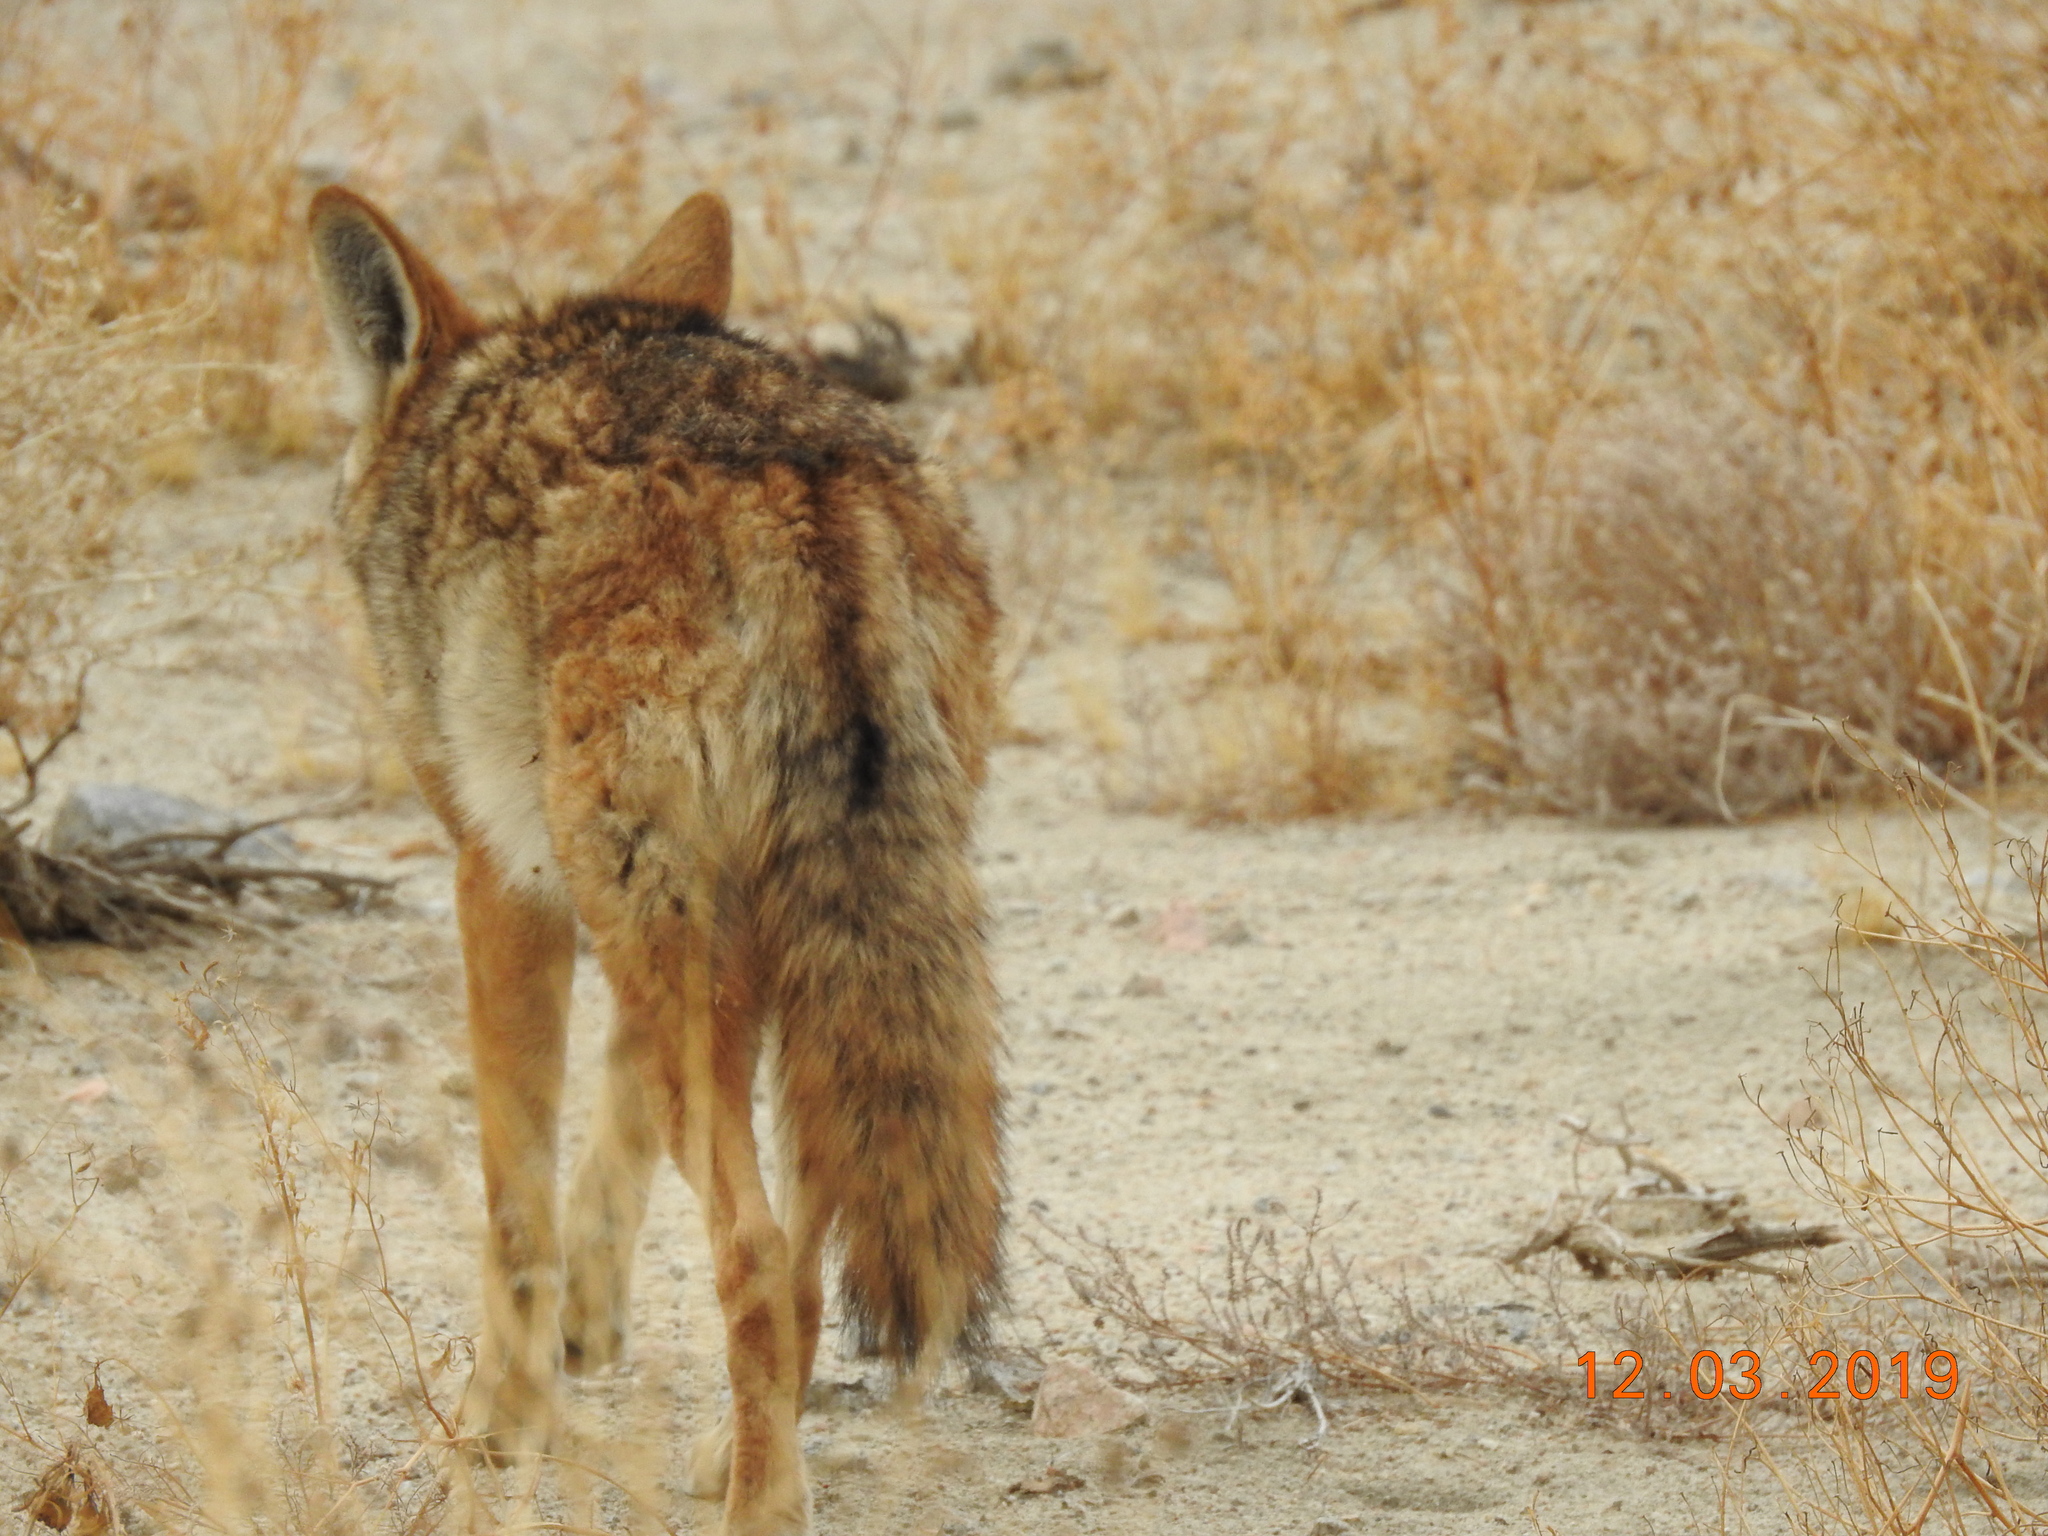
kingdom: Animalia
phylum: Chordata
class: Mammalia
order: Carnivora
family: Canidae
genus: Canis
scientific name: Canis latrans
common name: Coyote
